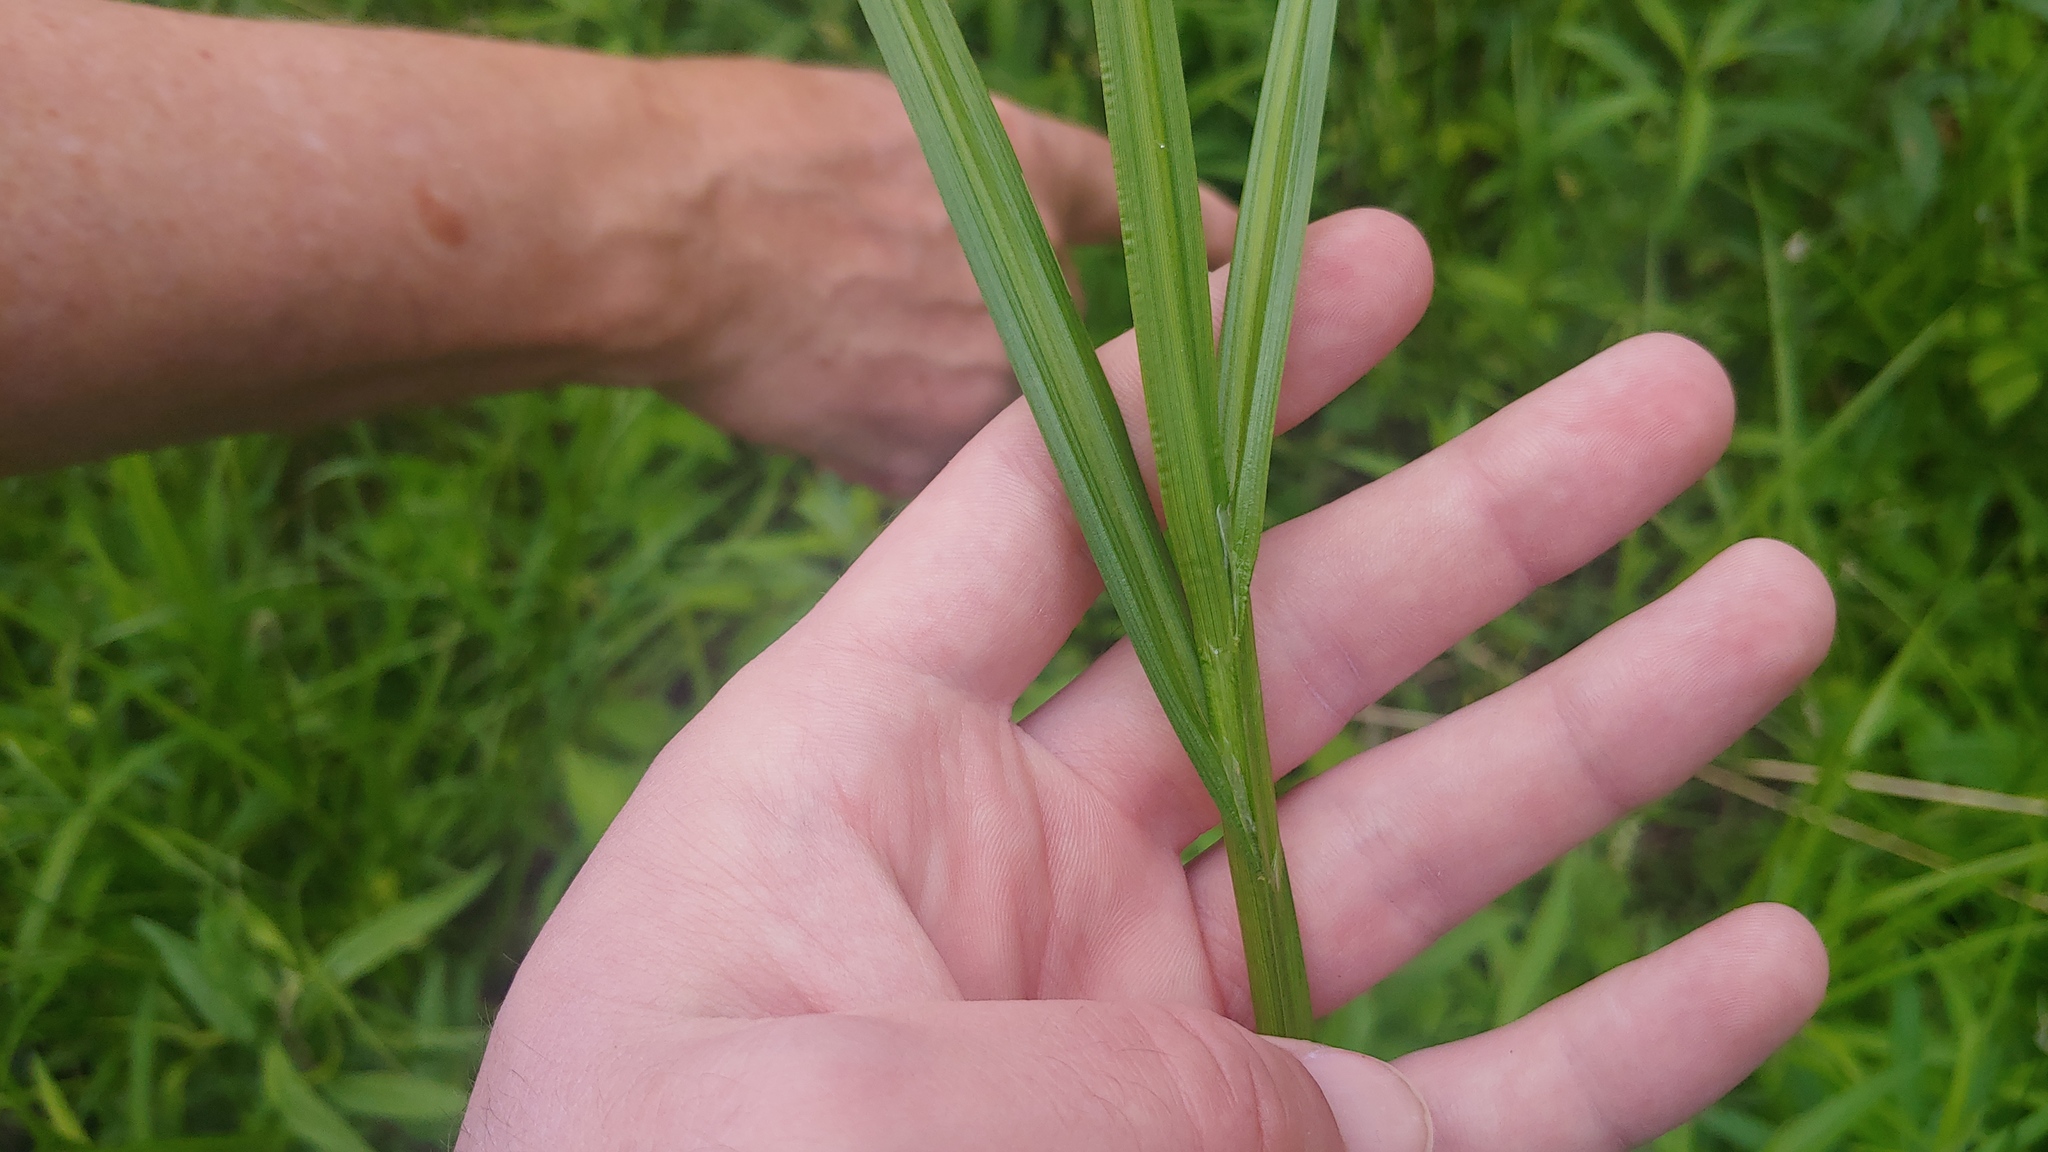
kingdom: Plantae
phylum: Tracheophyta
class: Liliopsida
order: Poales
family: Cyperaceae
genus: Carex
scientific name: Carex tribuloides
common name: Blunt broom sedge
